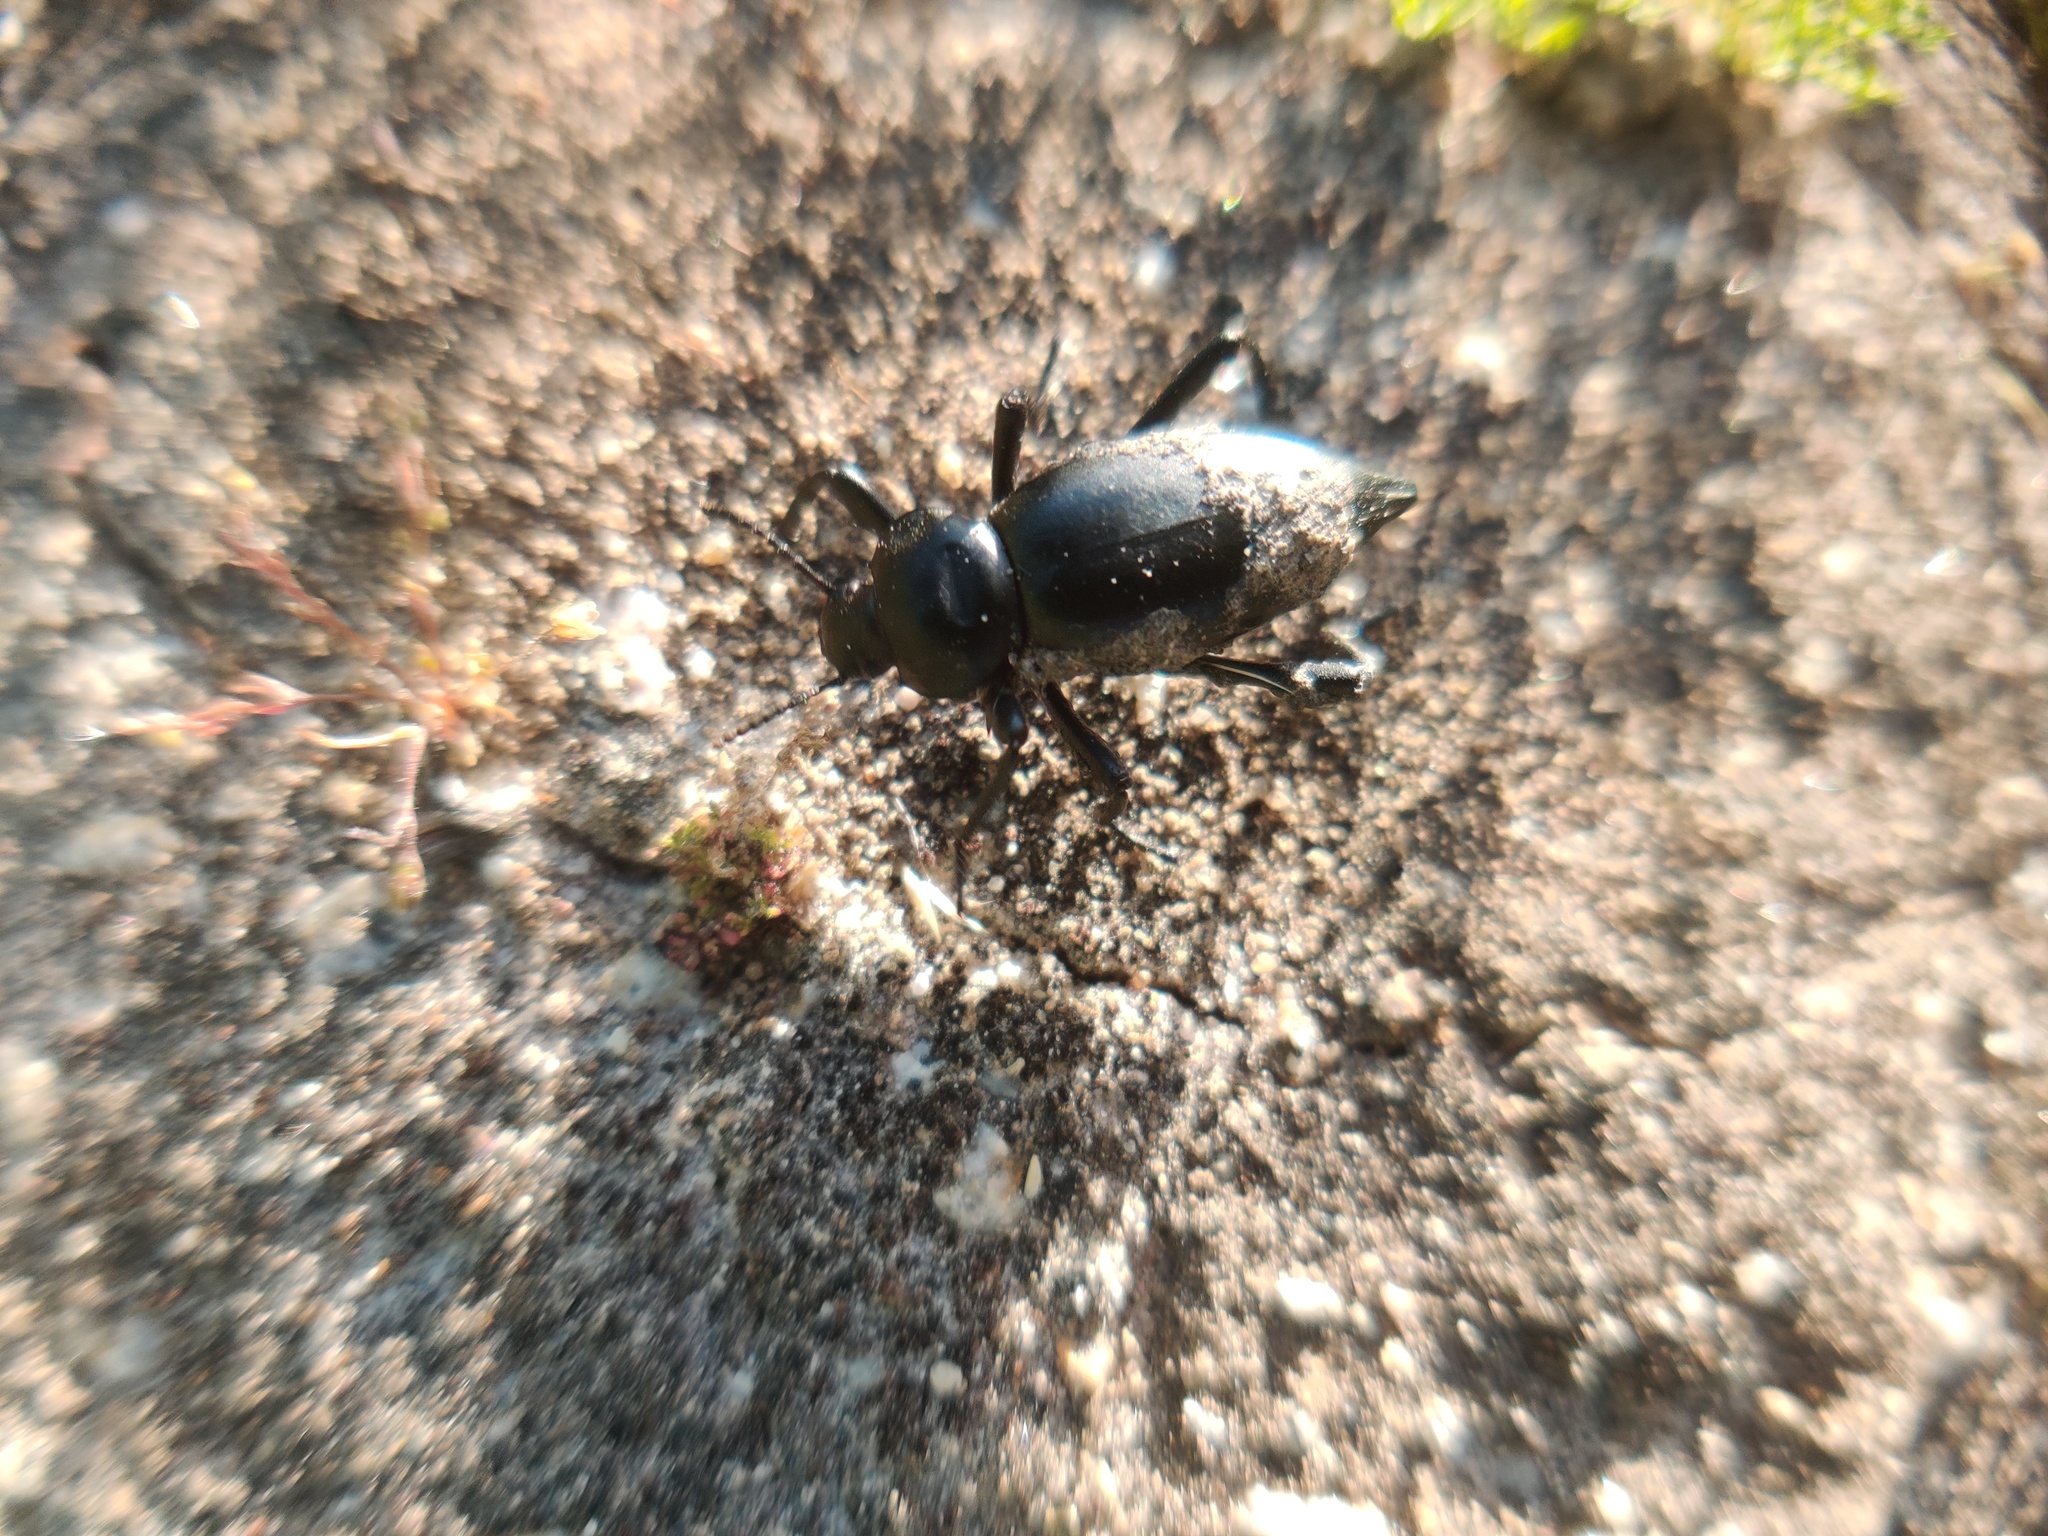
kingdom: Animalia
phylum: Arthropoda
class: Insecta
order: Coleoptera
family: Tenebrionidae
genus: Eleodes
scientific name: Eleodes acuticauda
